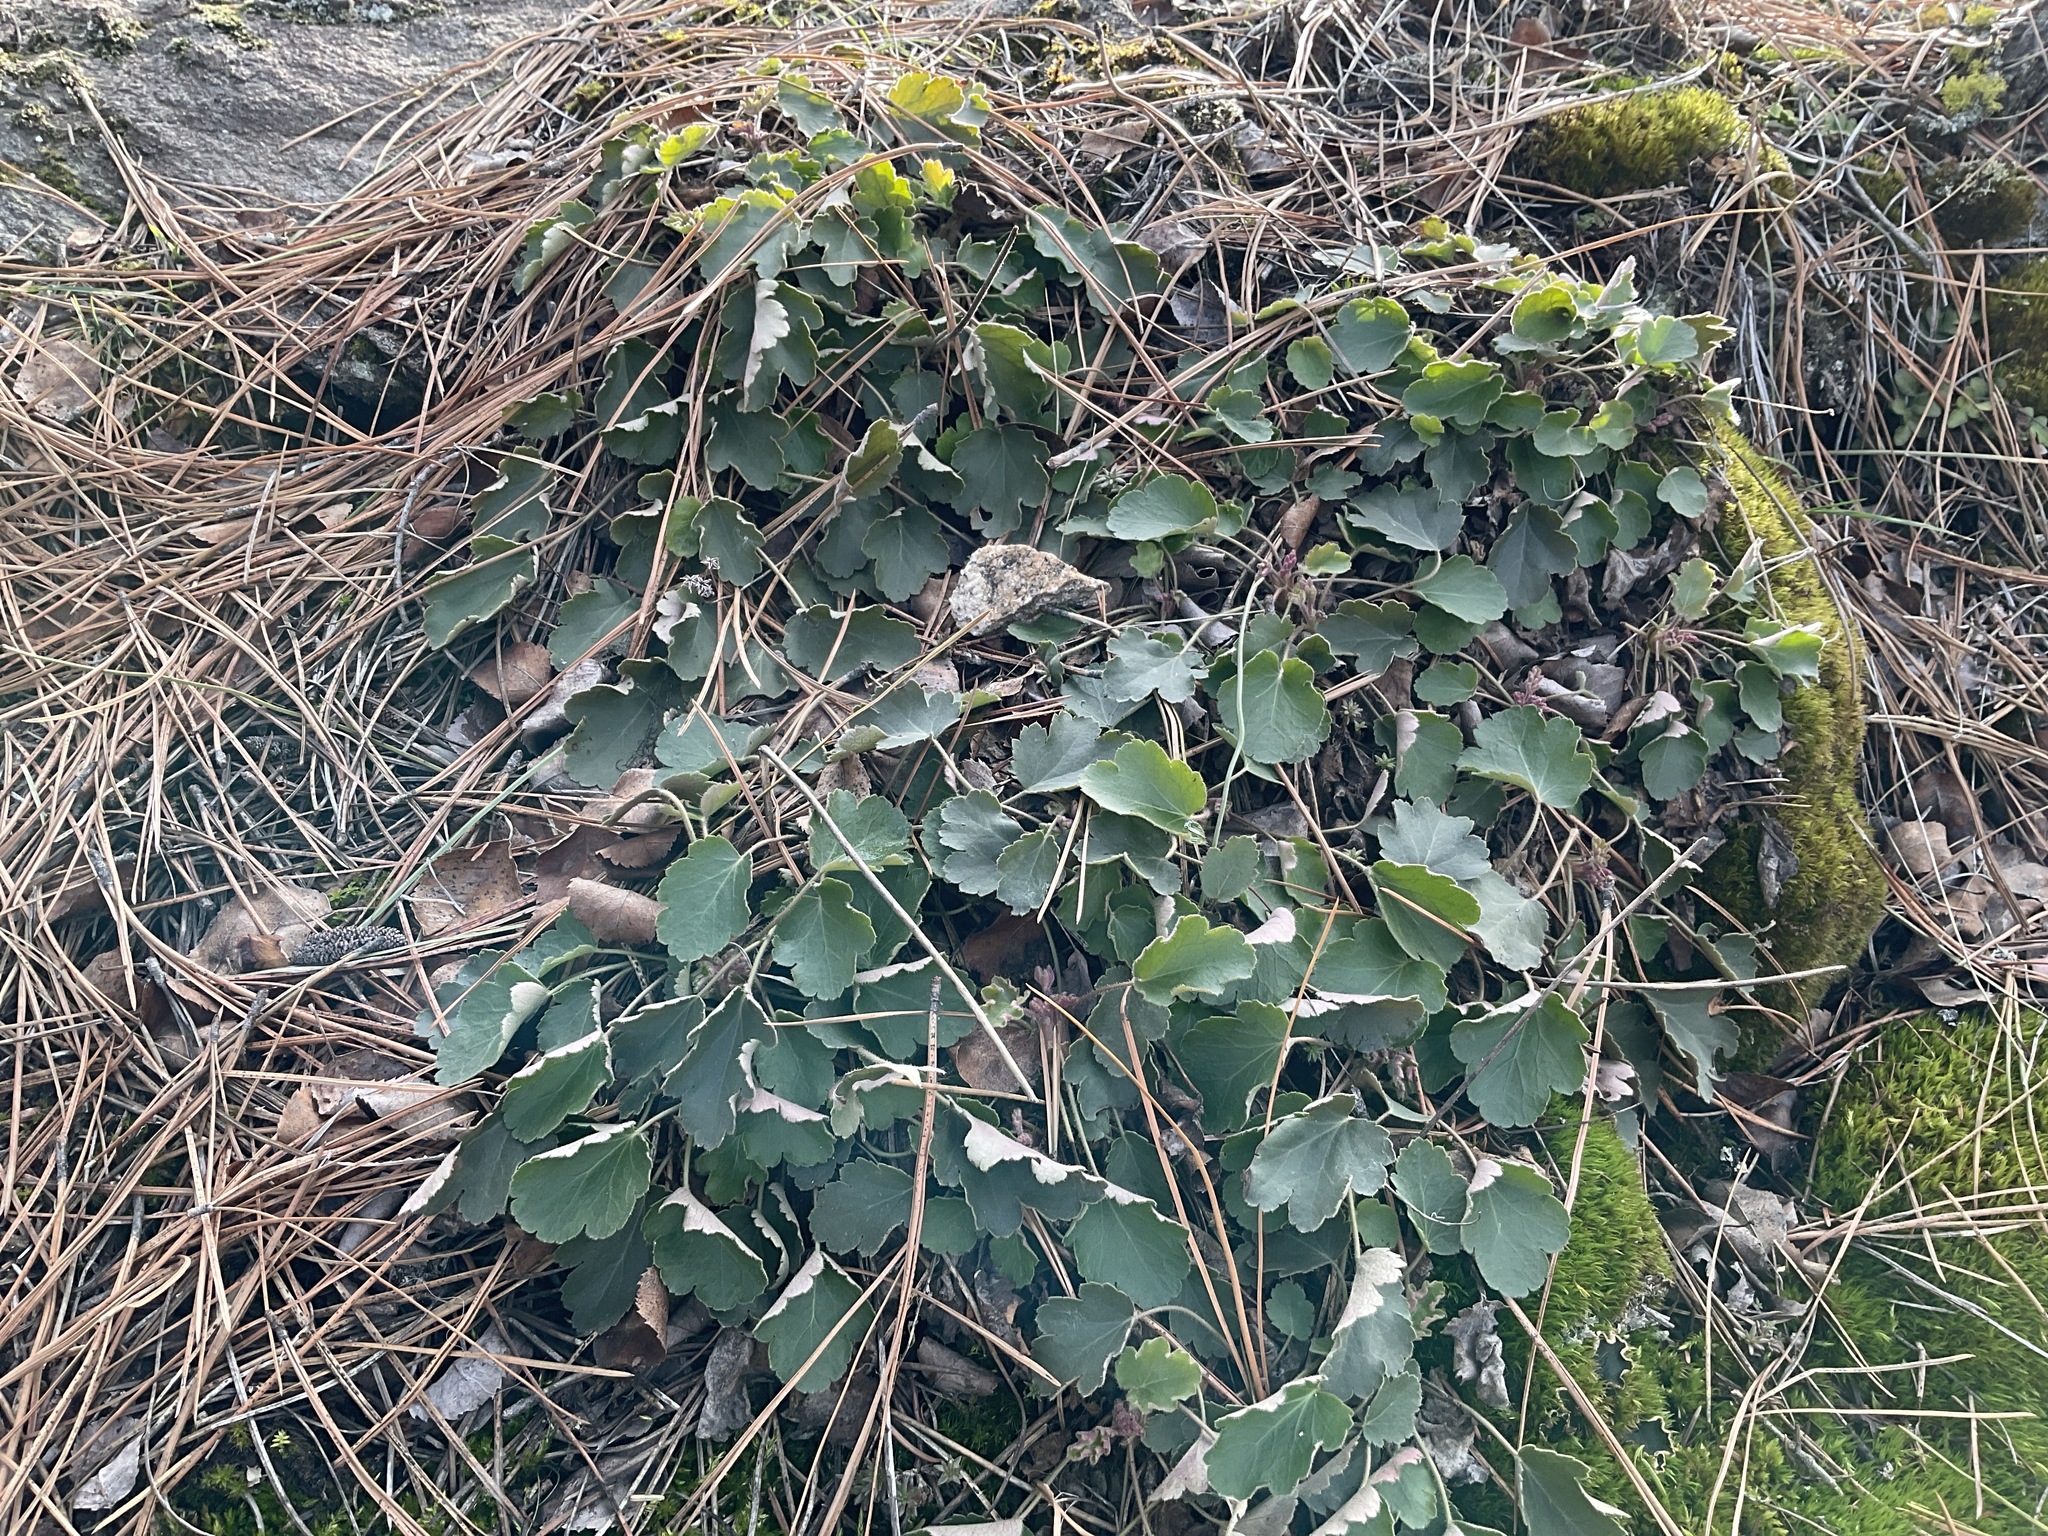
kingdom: Plantae
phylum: Tracheophyta
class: Magnoliopsida
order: Saxifragales
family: Saxifragaceae
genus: Heuchera
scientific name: Heuchera cylindrica
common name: Mat alumroot
